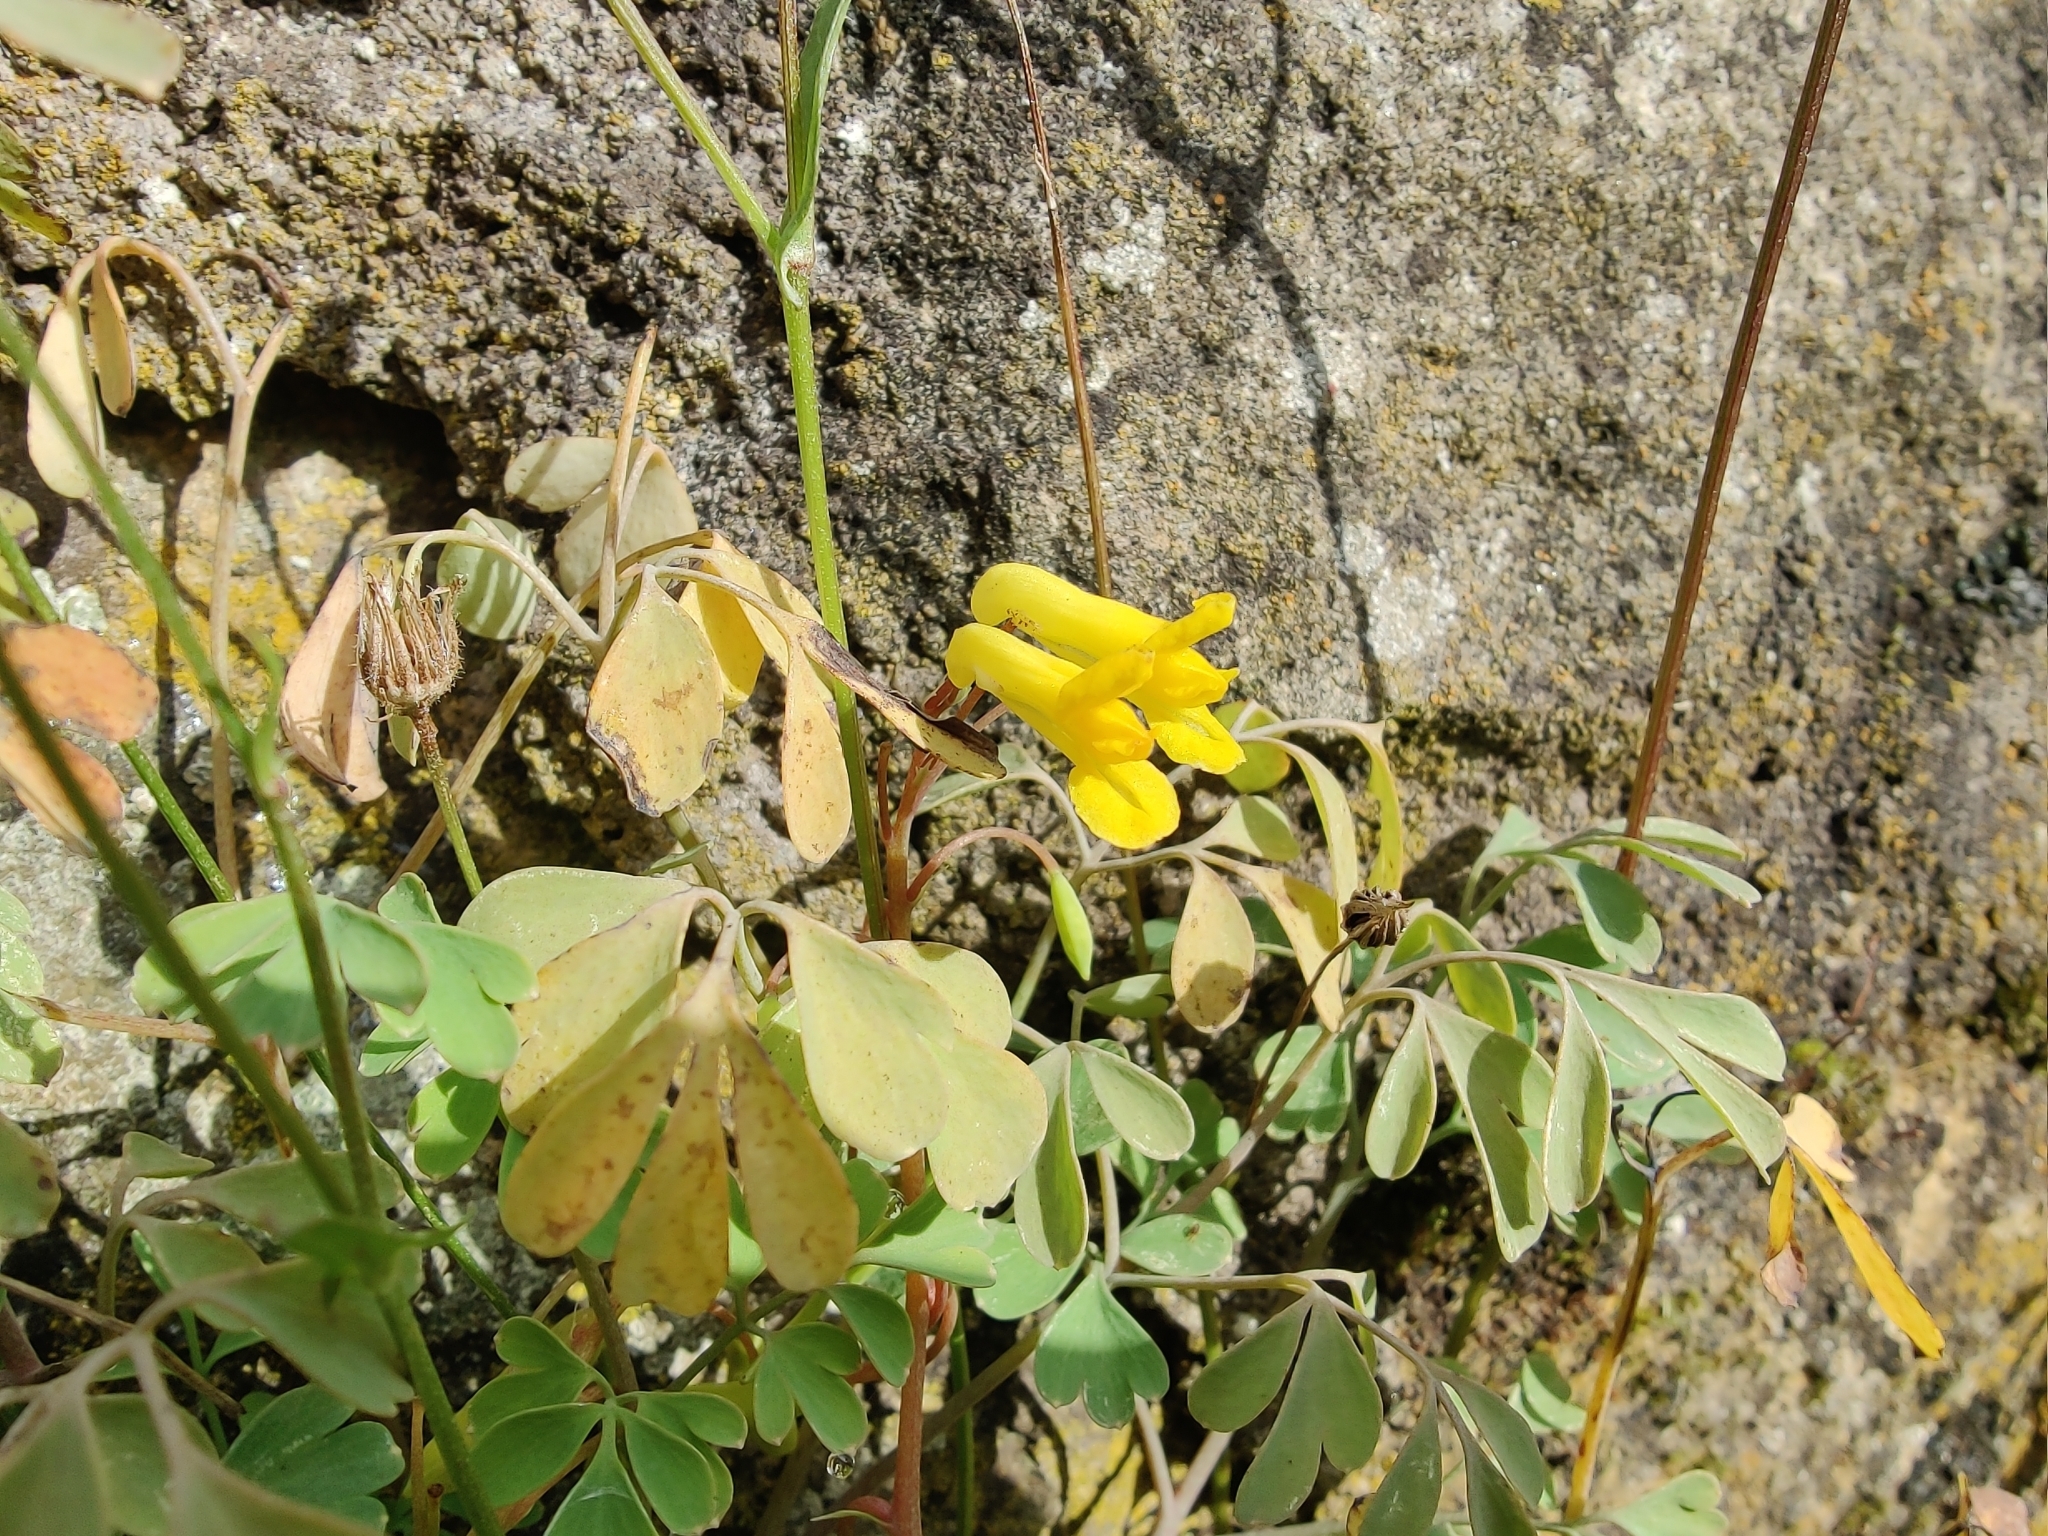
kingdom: Plantae
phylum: Tracheophyta
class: Magnoliopsida
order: Ranunculales
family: Papaveraceae
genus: Pseudofumaria
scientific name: Pseudofumaria lutea
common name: Yellow corydalis
